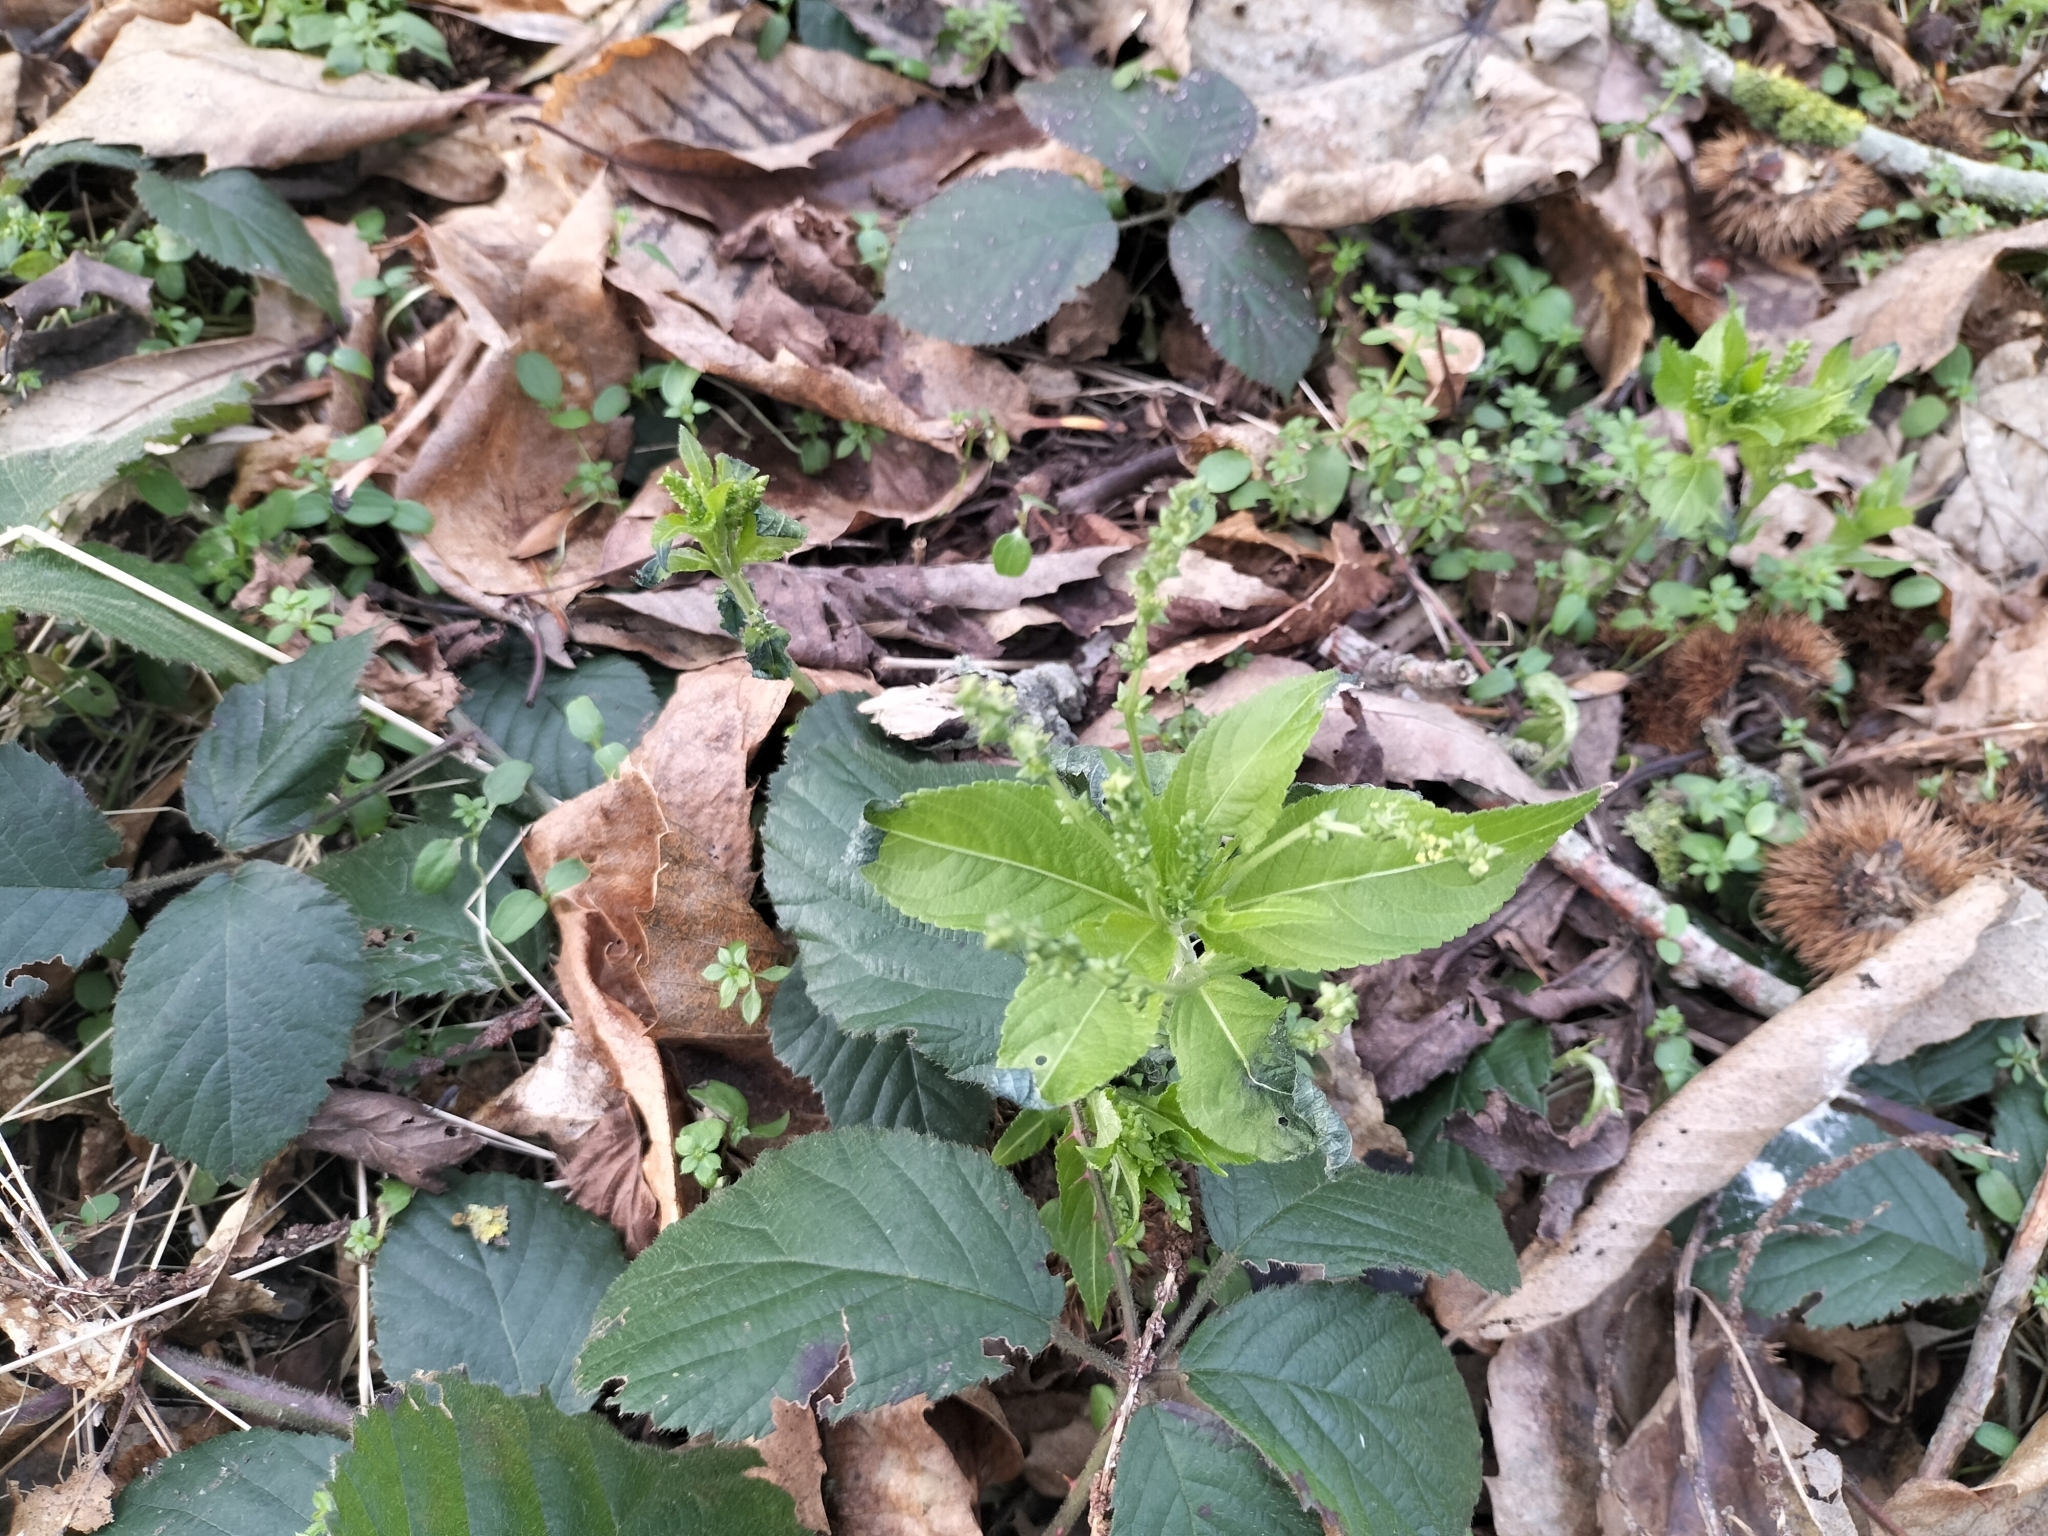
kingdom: Plantae
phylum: Tracheophyta
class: Magnoliopsida
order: Malpighiales
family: Euphorbiaceae
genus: Mercurialis
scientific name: Mercurialis perennis
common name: Dog mercury
